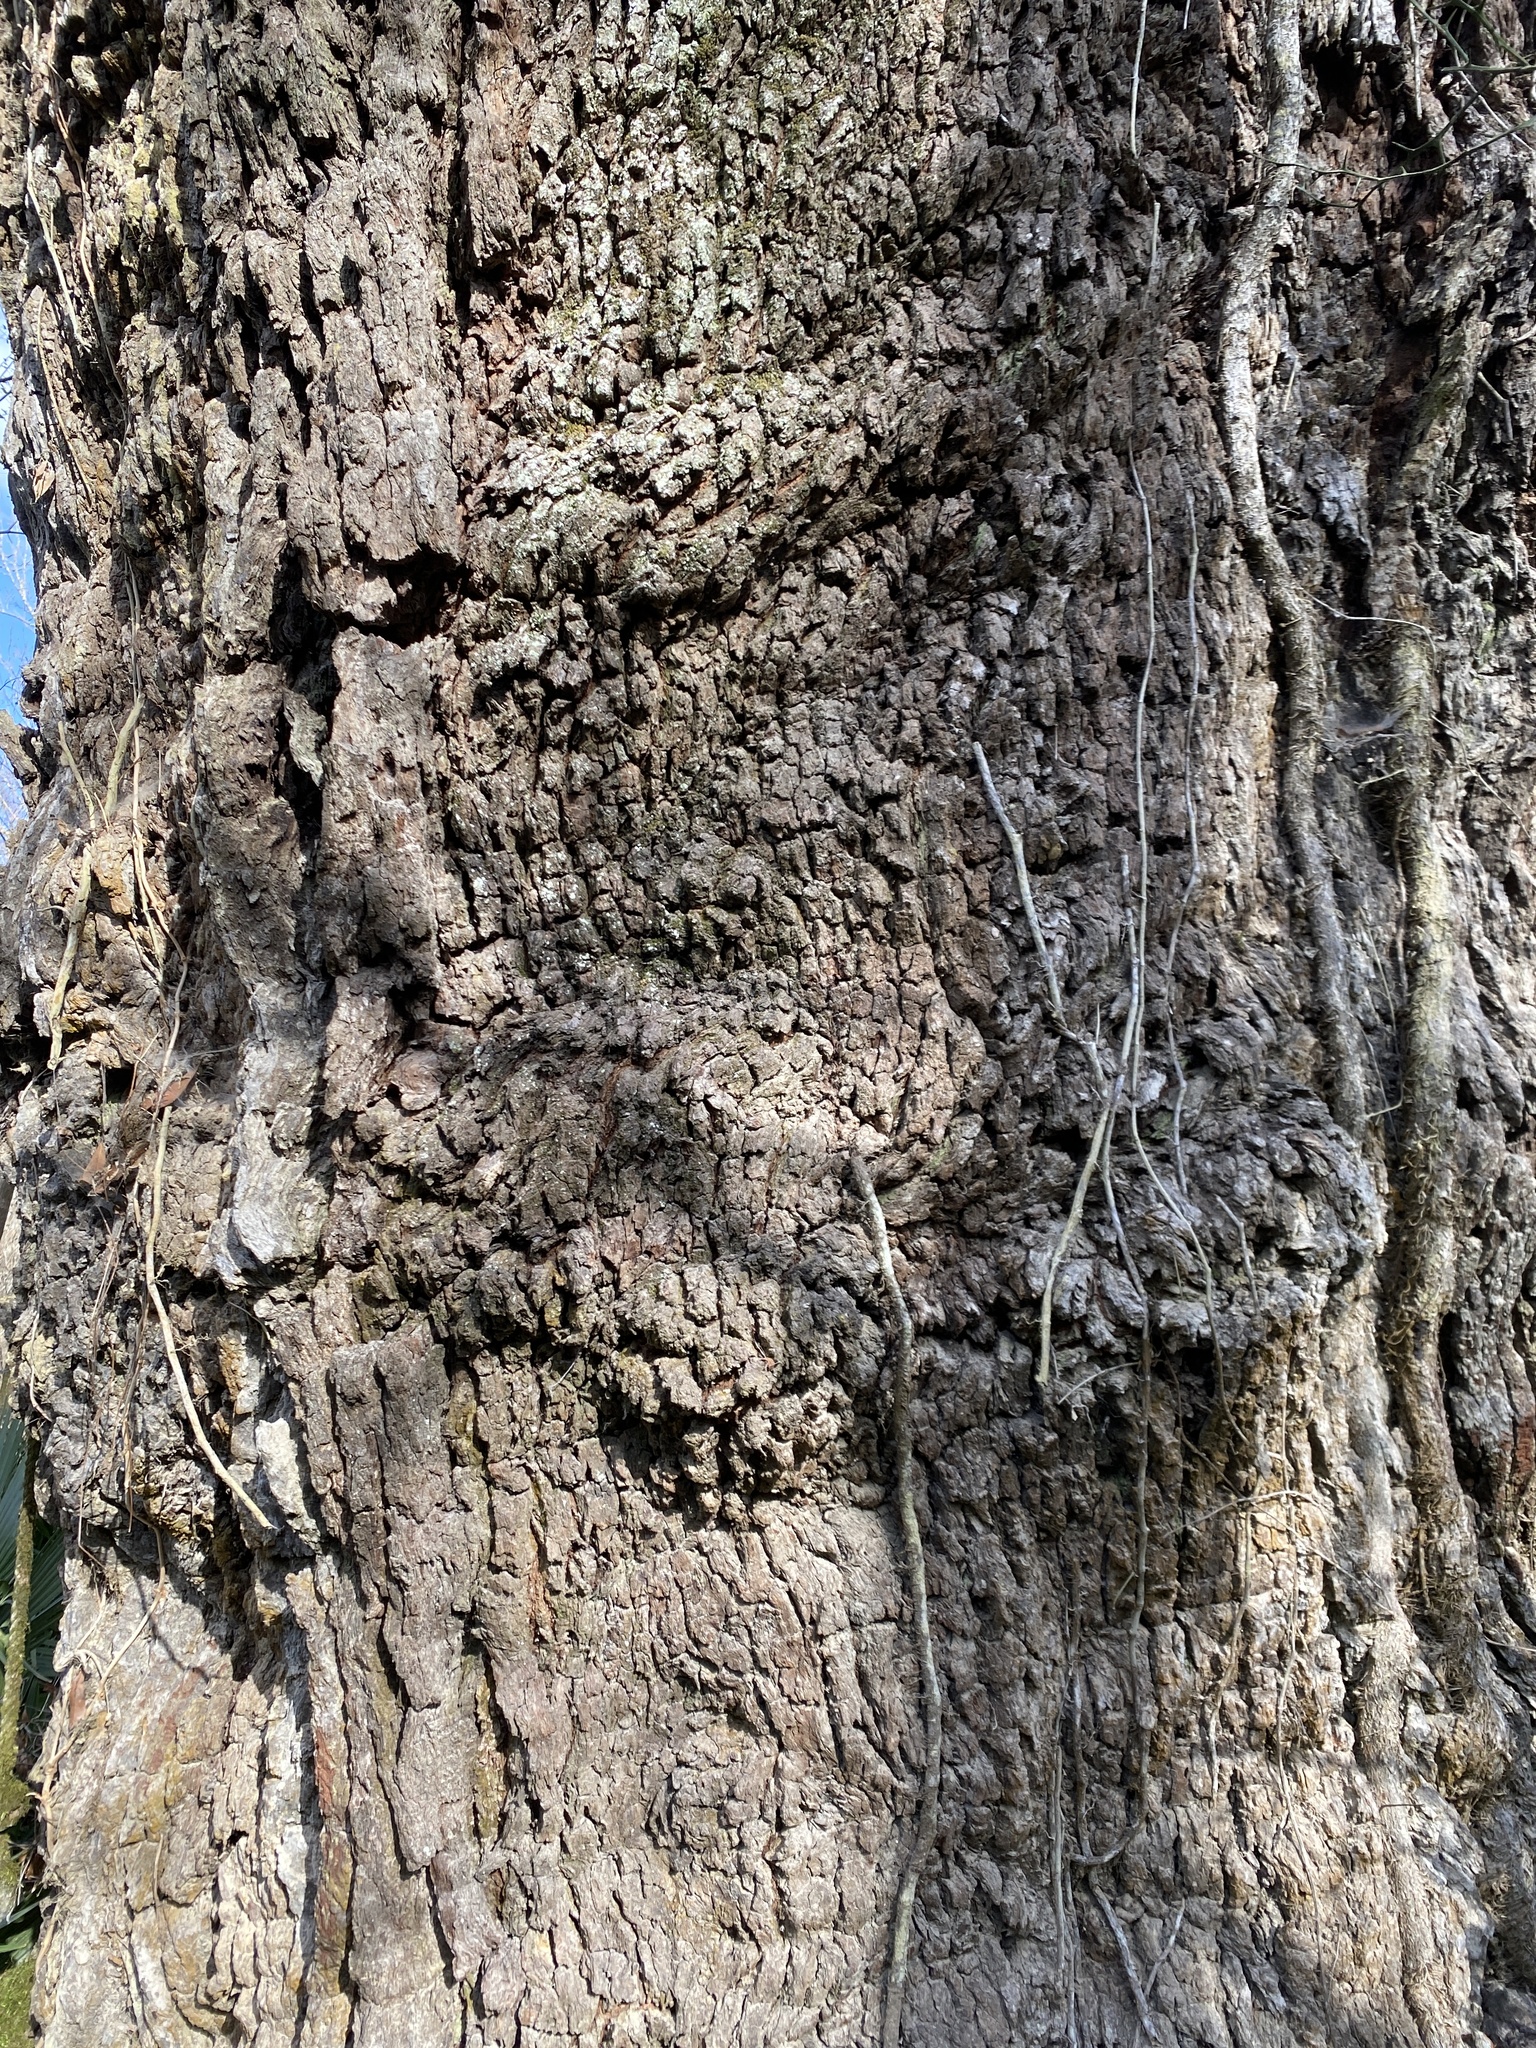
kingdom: Plantae
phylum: Tracheophyta
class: Magnoliopsida
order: Fagales
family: Fagaceae
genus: Quercus
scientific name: Quercus virginiana
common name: Southern live oak
